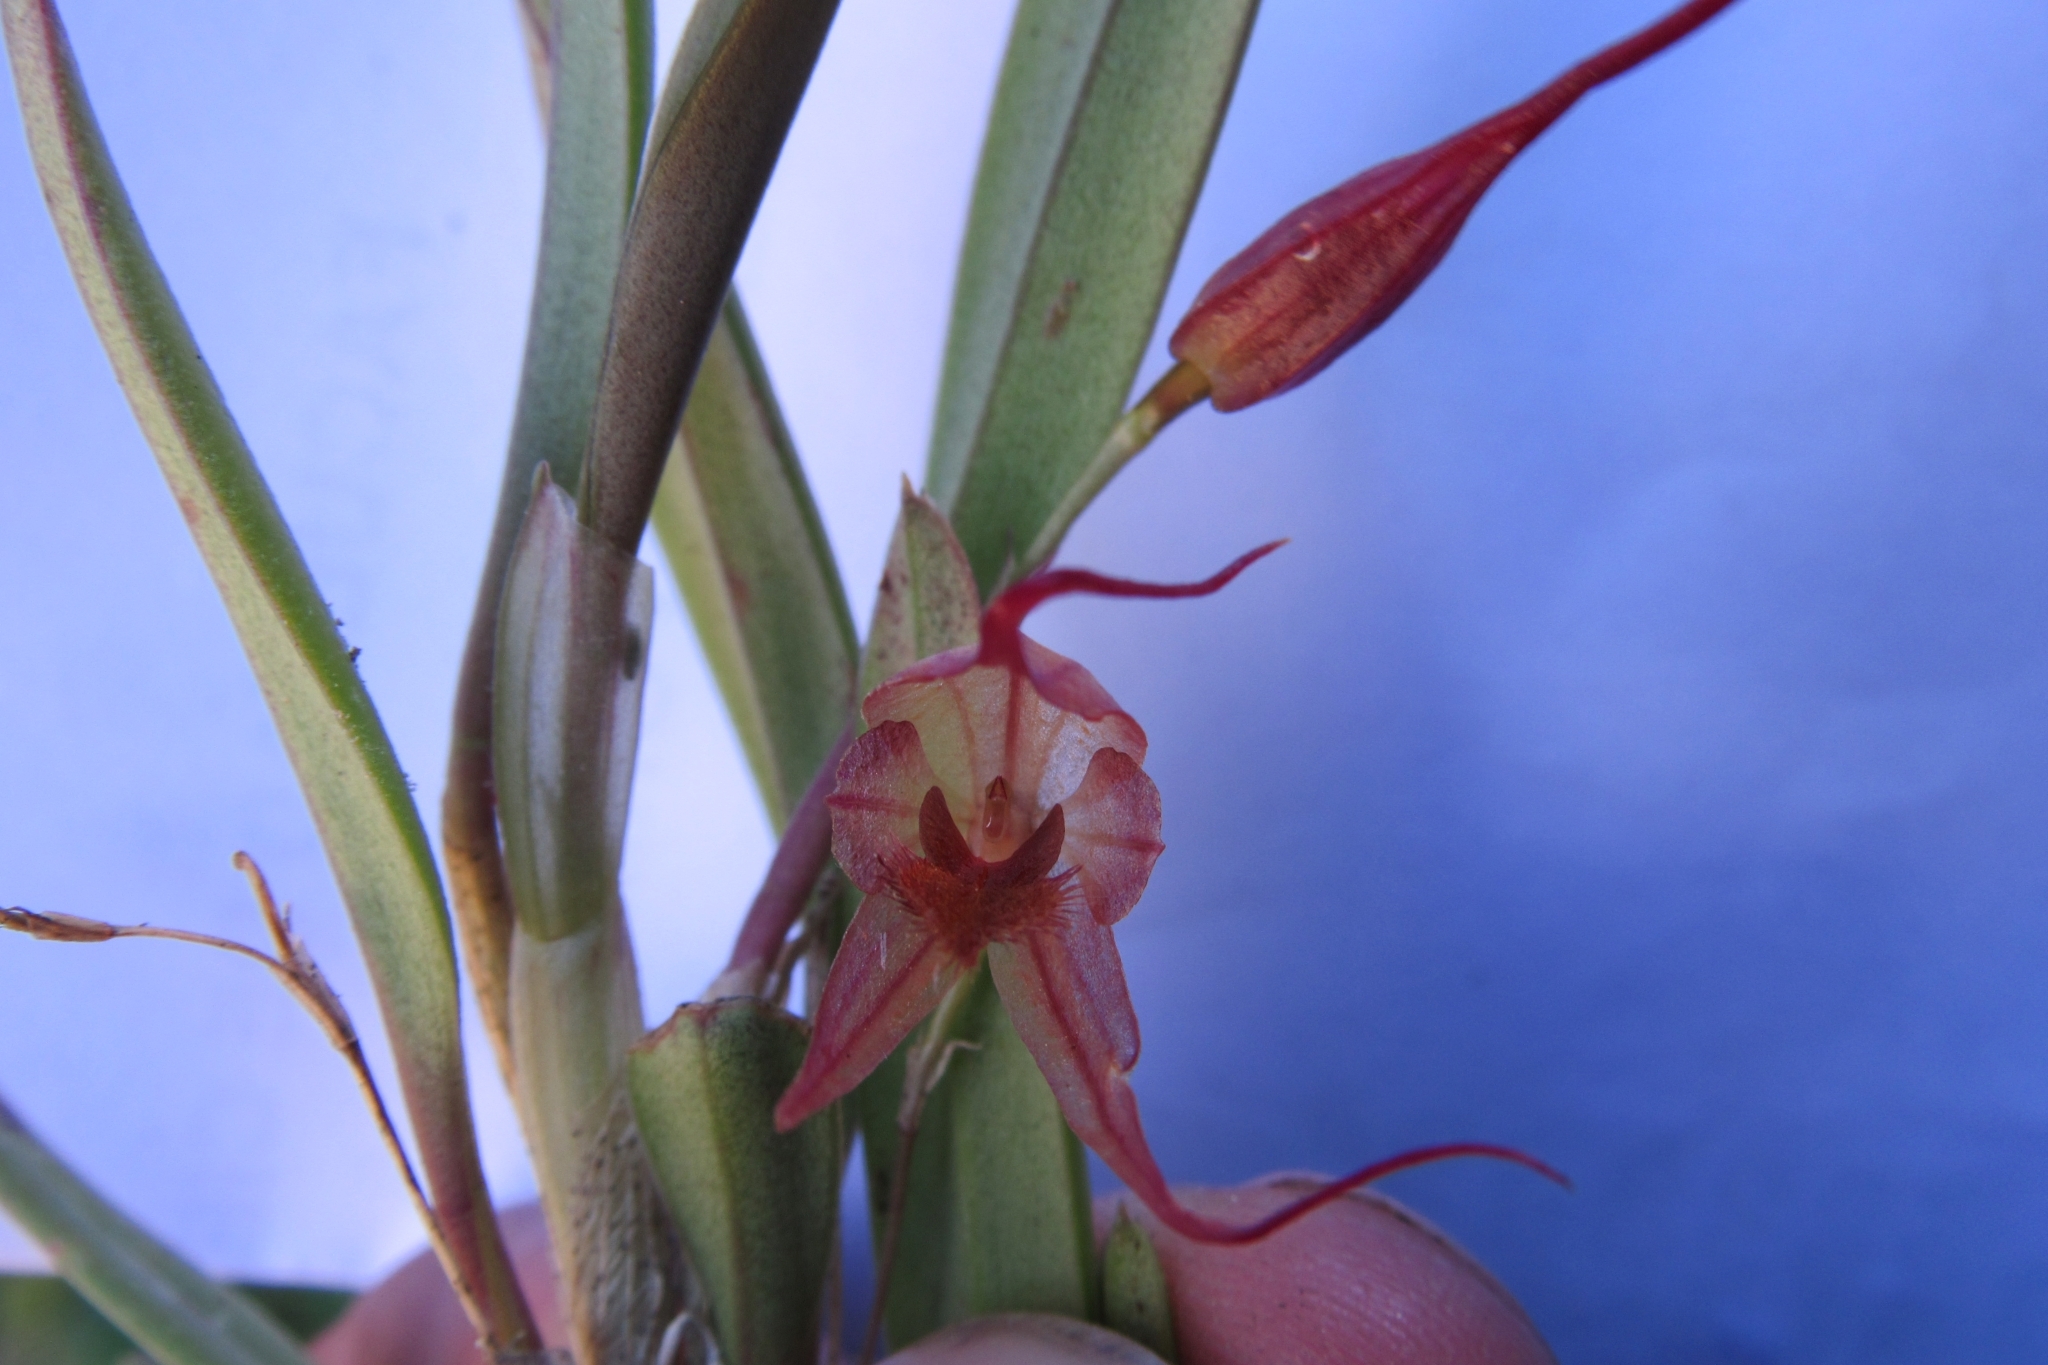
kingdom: Plantae
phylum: Tracheophyta
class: Liliopsida
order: Asparagales
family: Orchidaceae
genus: Andinia
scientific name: Andinia longiserpens
